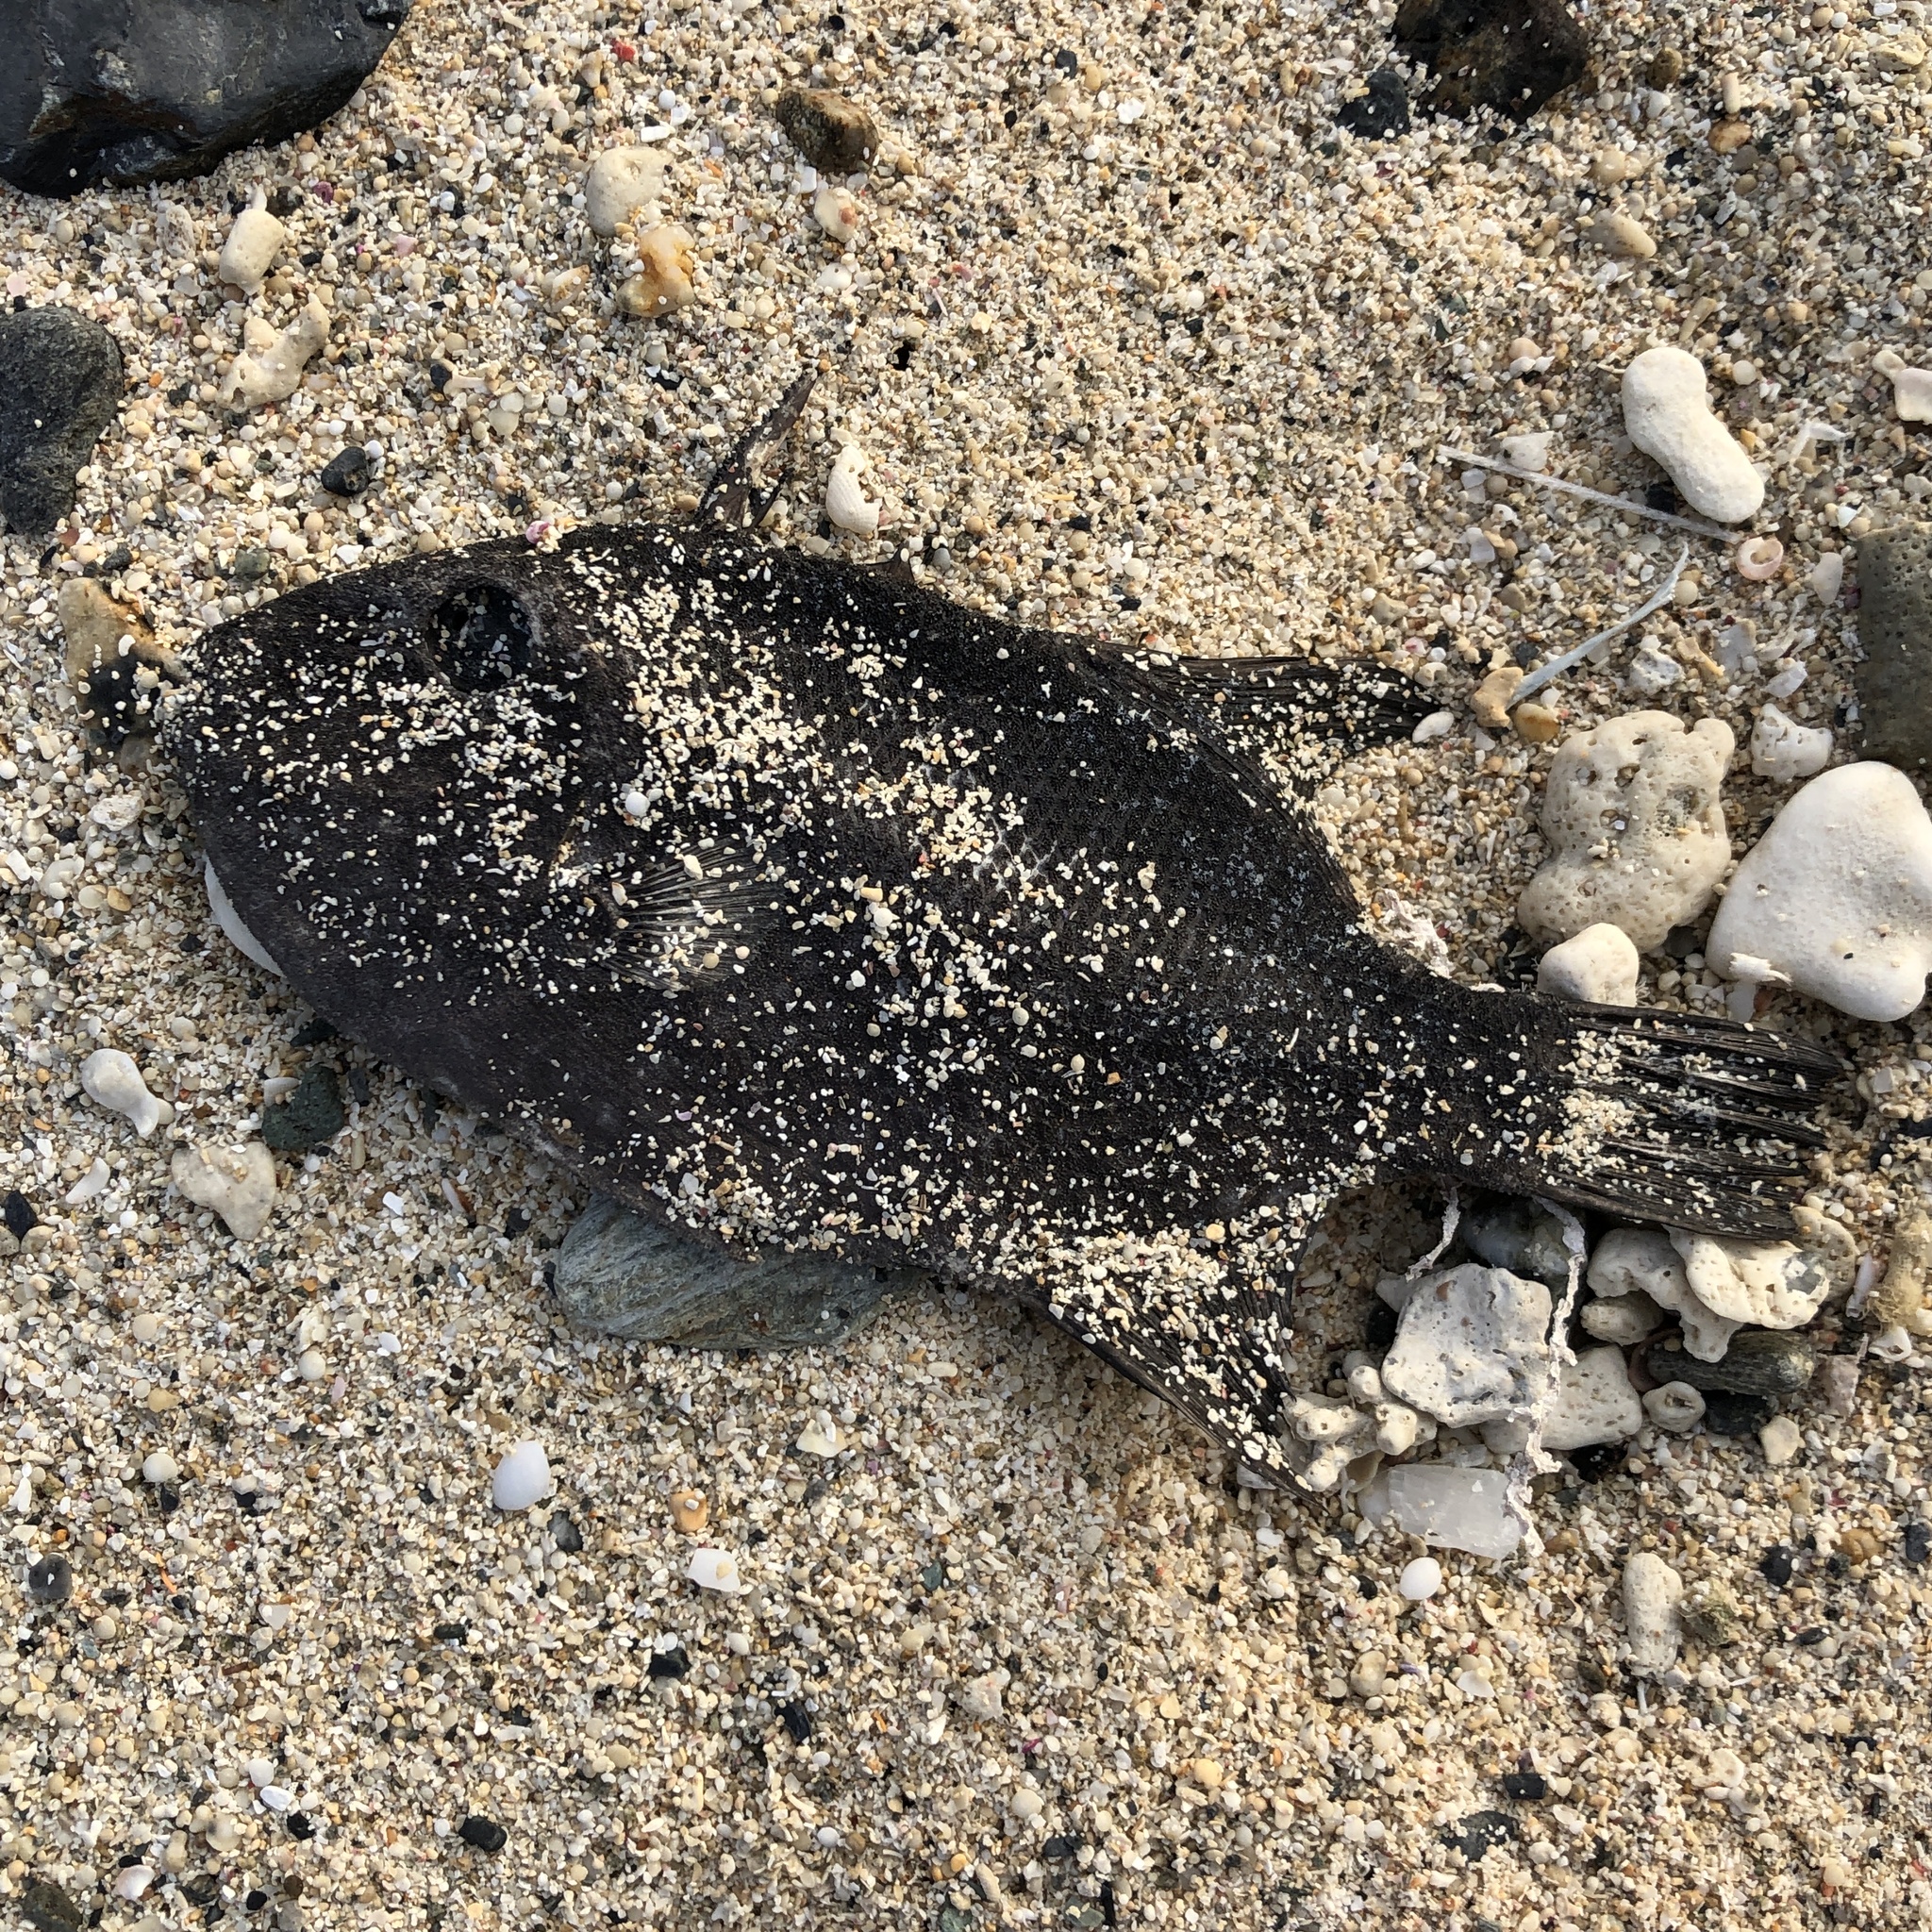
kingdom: Animalia
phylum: Chordata
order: Tetraodontiformes
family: Balistidae
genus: Canthidermis
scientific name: Canthidermis maculata
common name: Rough triggerfish
